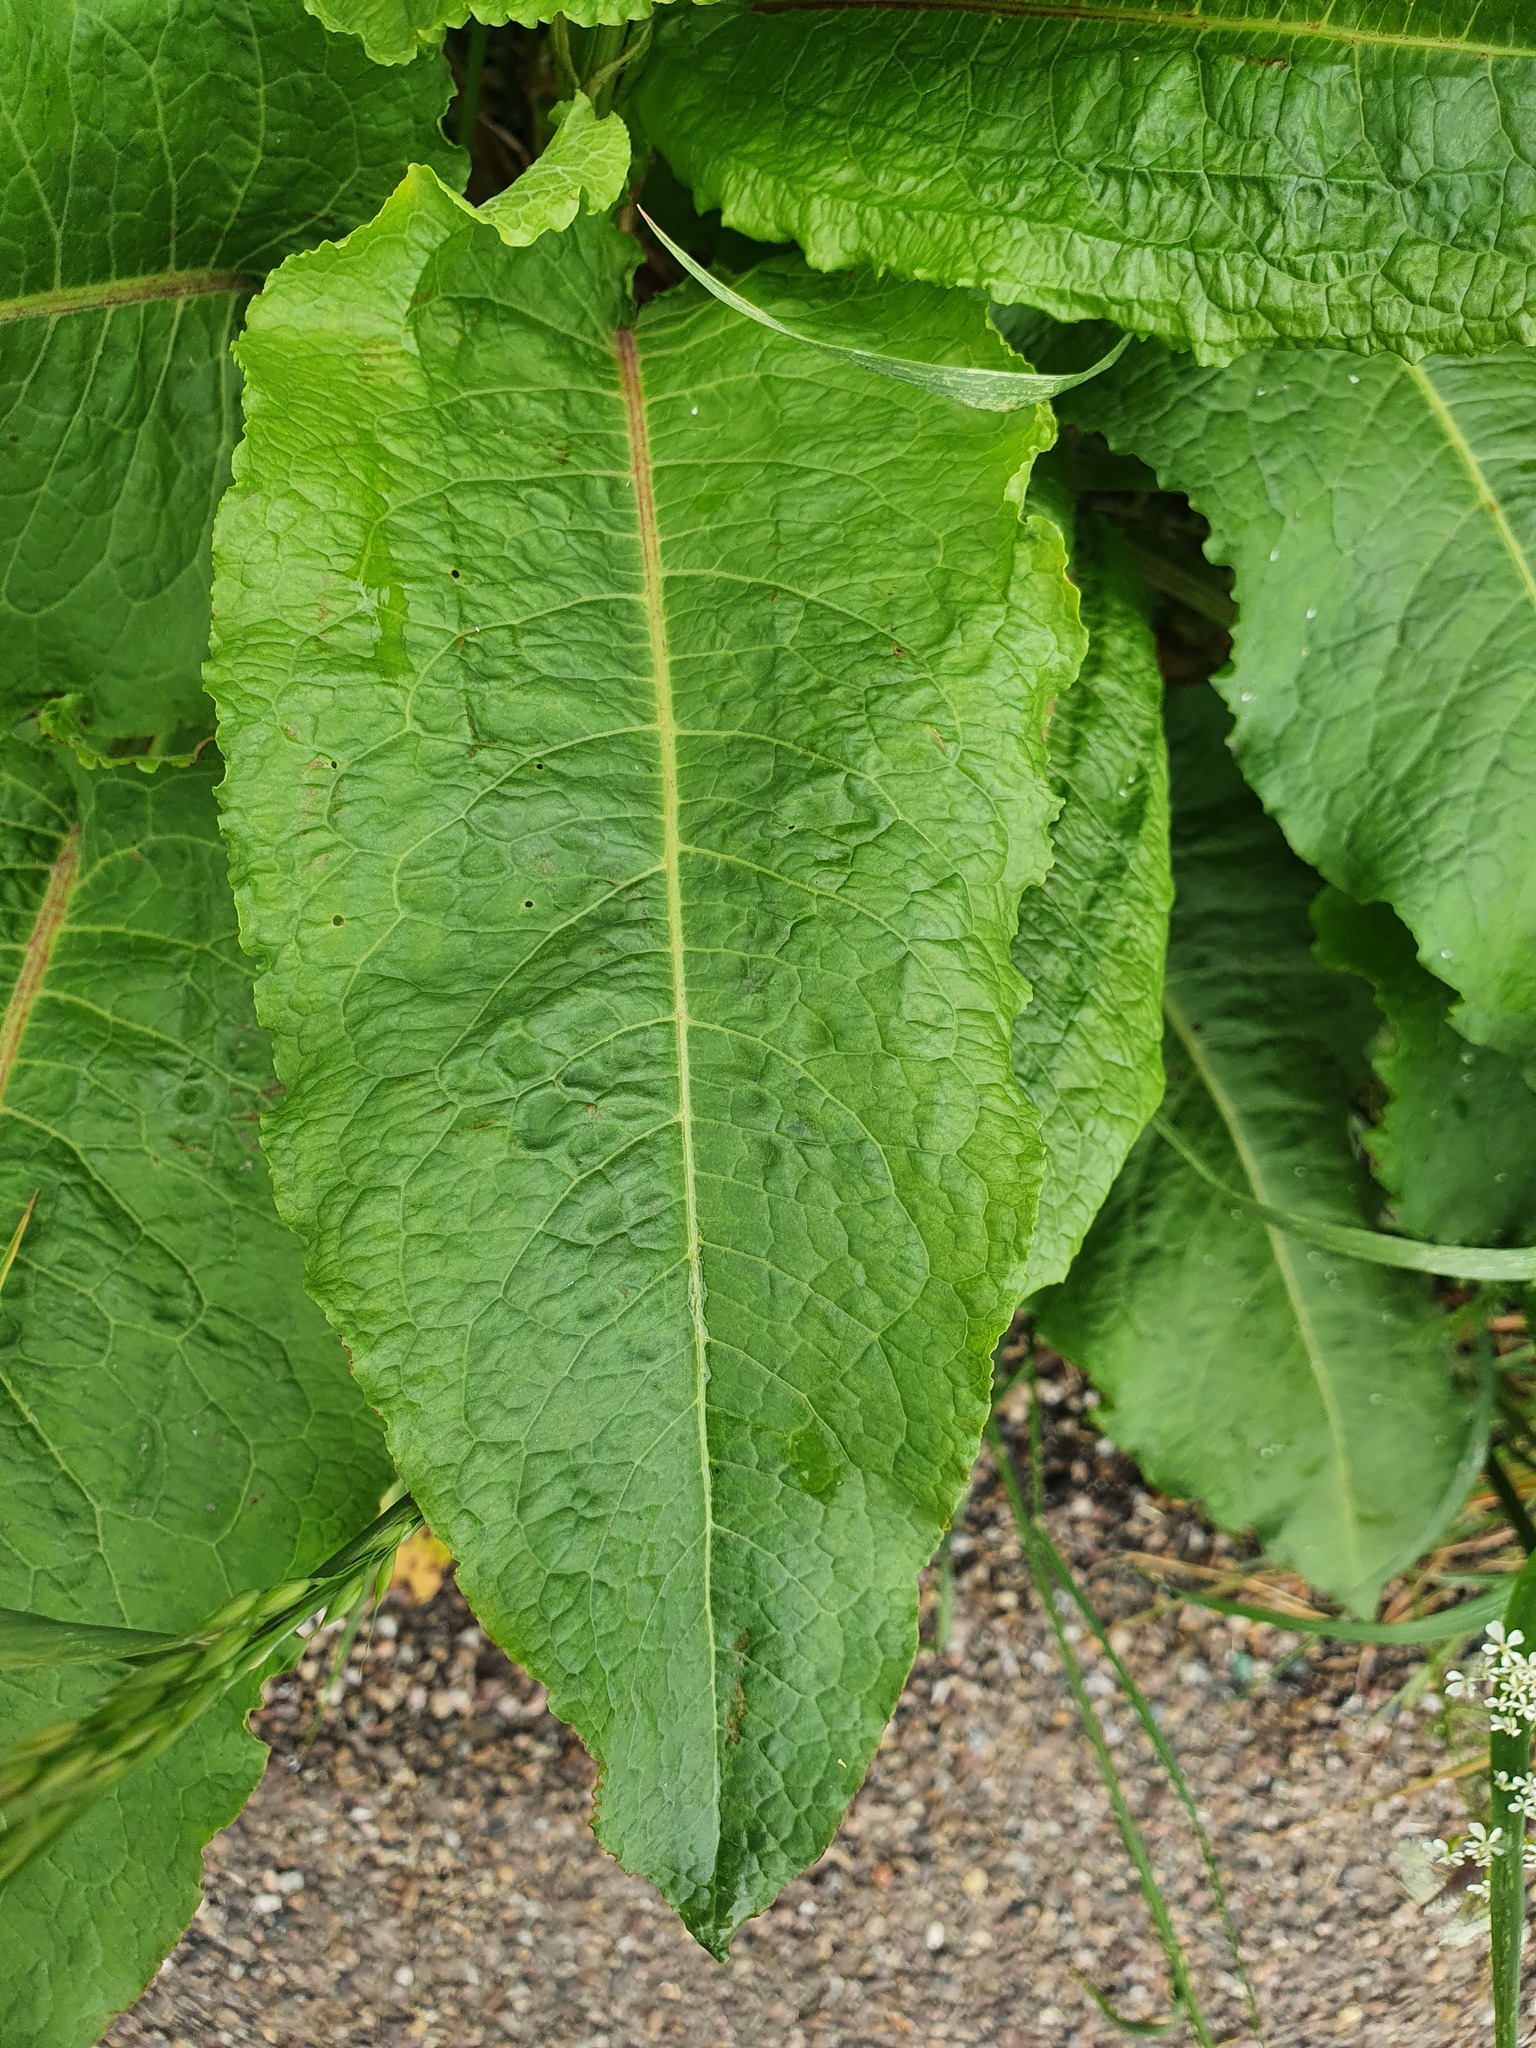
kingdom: Plantae
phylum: Tracheophyta
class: Magnoliopsida
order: Caryophyllales
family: Polygonaceae
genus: Rumex
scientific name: Rumex obtusifolius
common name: Bitter dock
